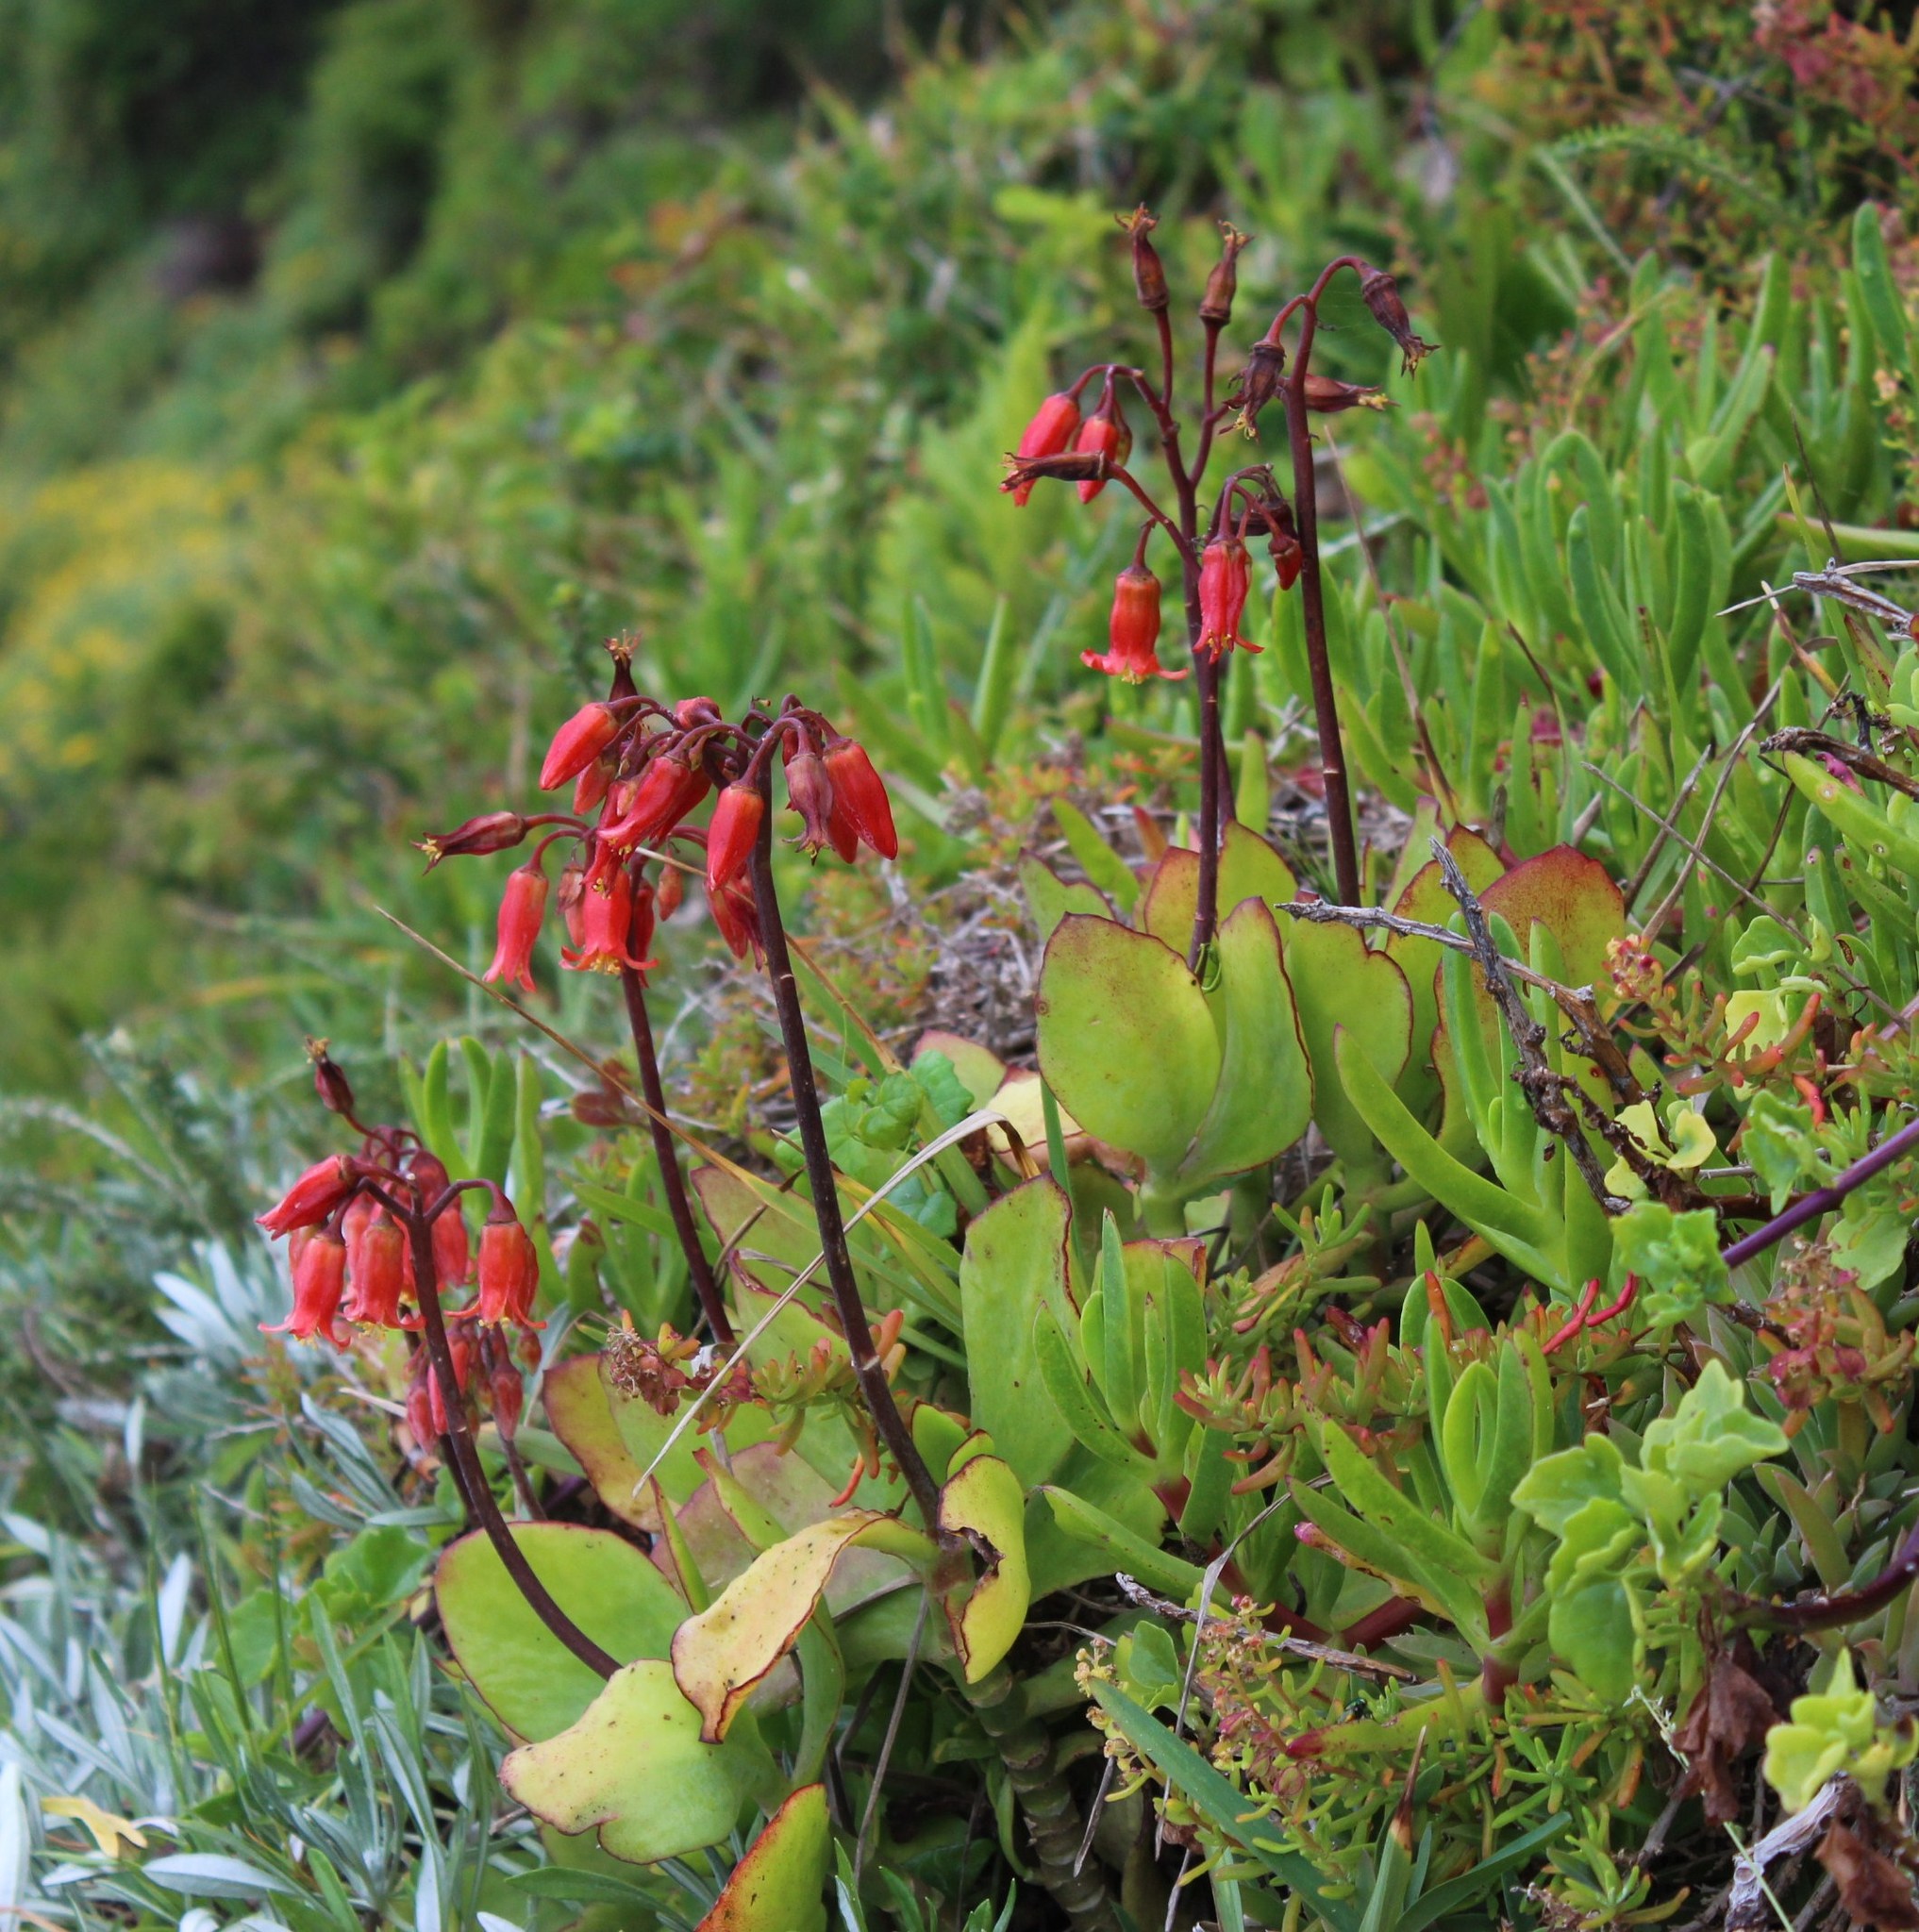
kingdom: Plantae
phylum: Tracheophyta
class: Magnoliopsida
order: Saxifragales
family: Crassulaceae
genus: Cotyledon
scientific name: Cotyledon orbiculata
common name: Pig's ear
